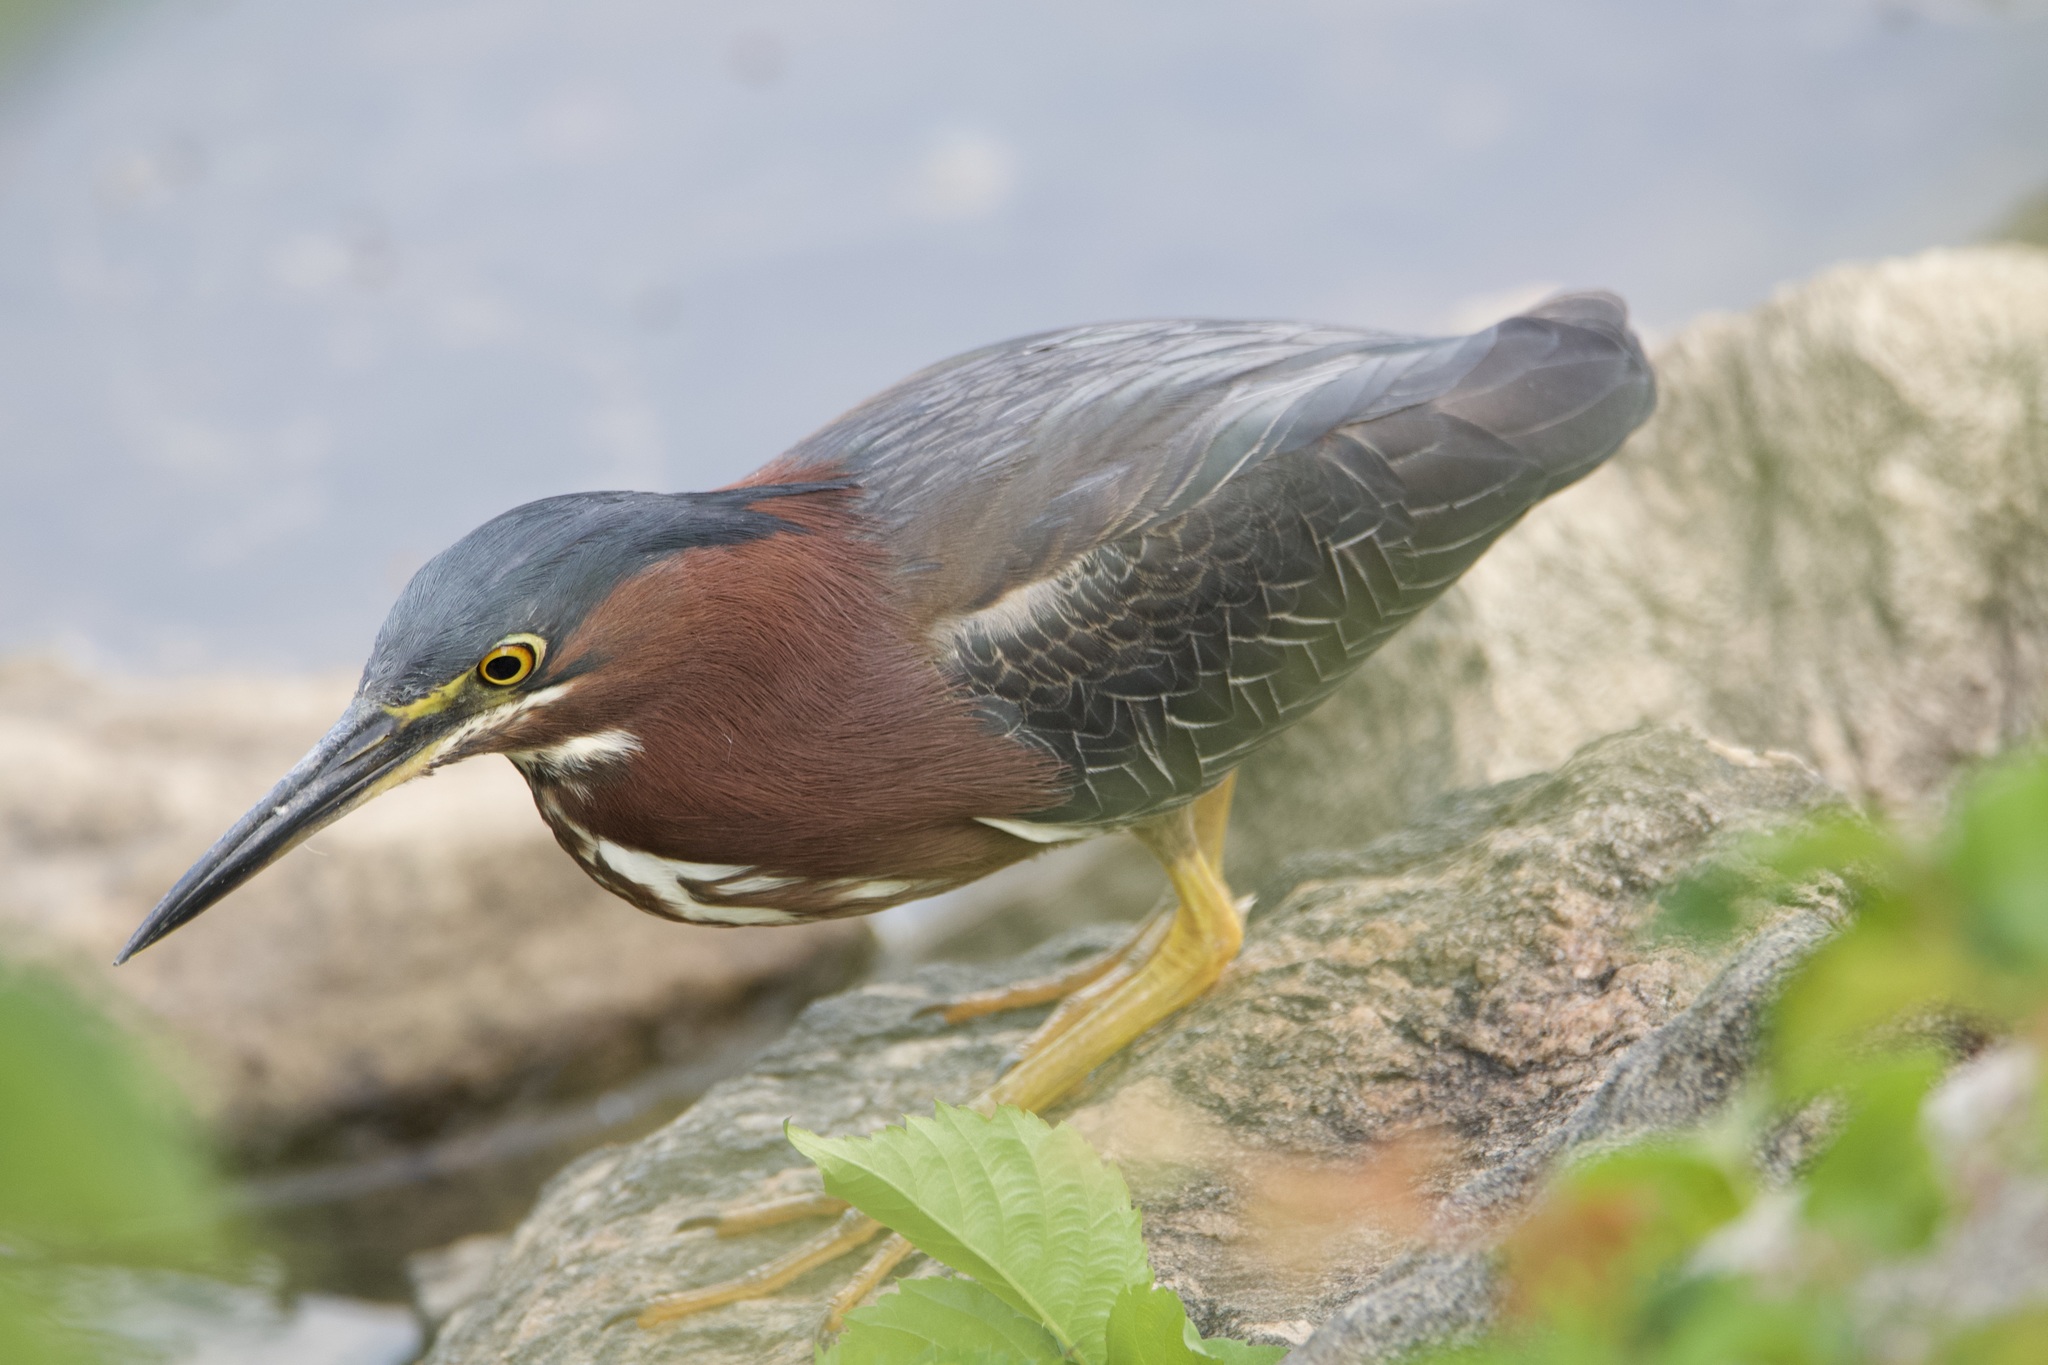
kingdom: Animalia
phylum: Chordata
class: Aves
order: Pelecaniformes
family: Ardeidae
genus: Butorides
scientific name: Butorides virescens
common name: Green heron
